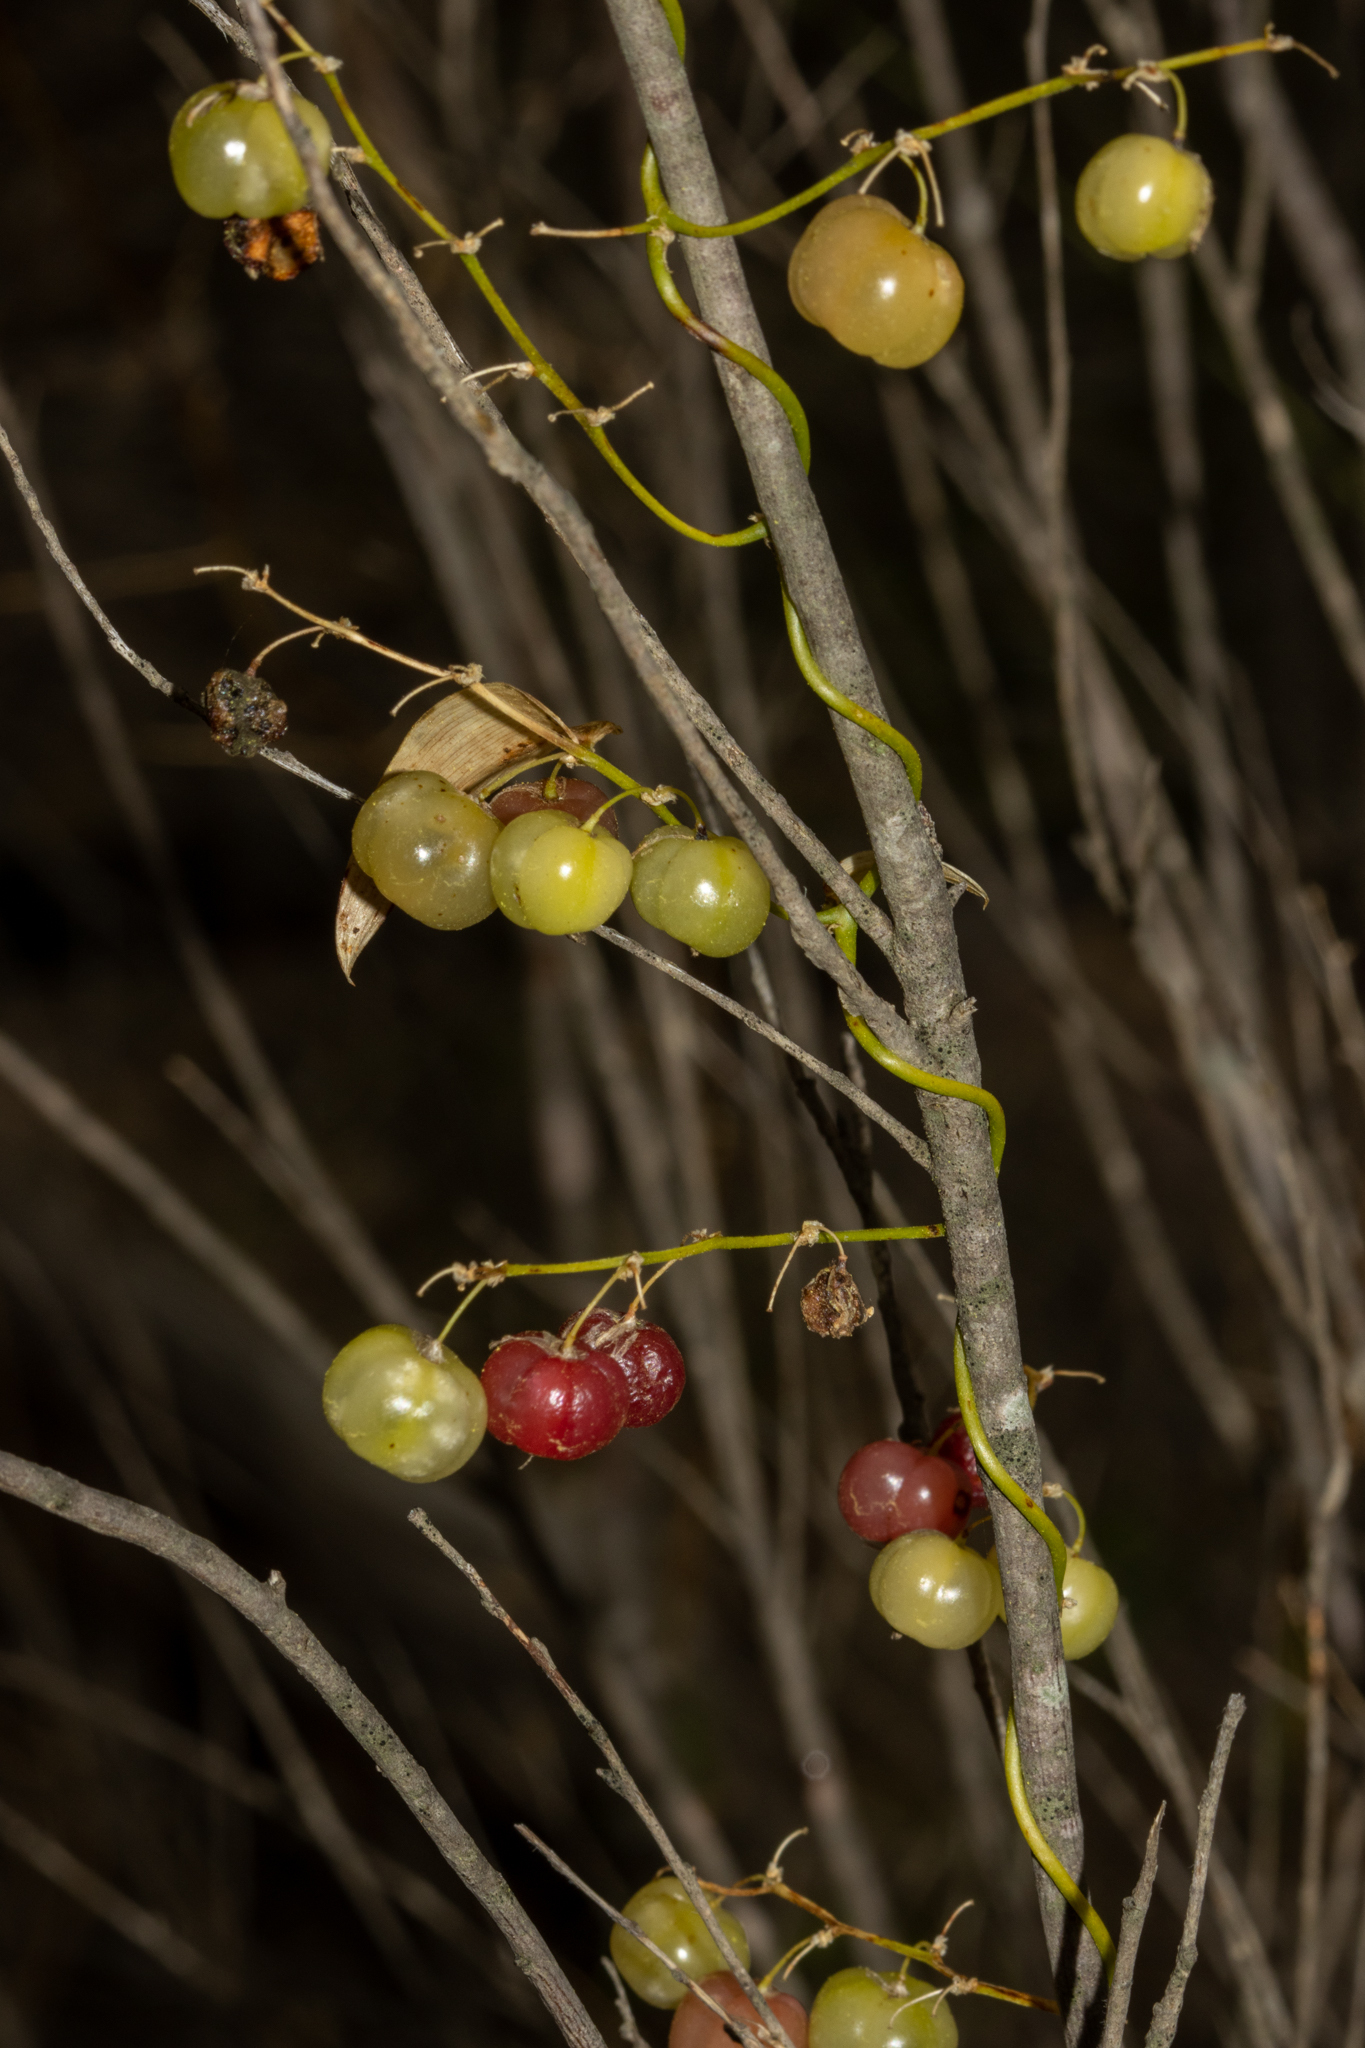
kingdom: Plantae
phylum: Tracheophyta
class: Liliopsida
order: Asparagales
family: Asparagaceae
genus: Asparagus
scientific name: Asparagus asparagoides
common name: African asparagus fern
